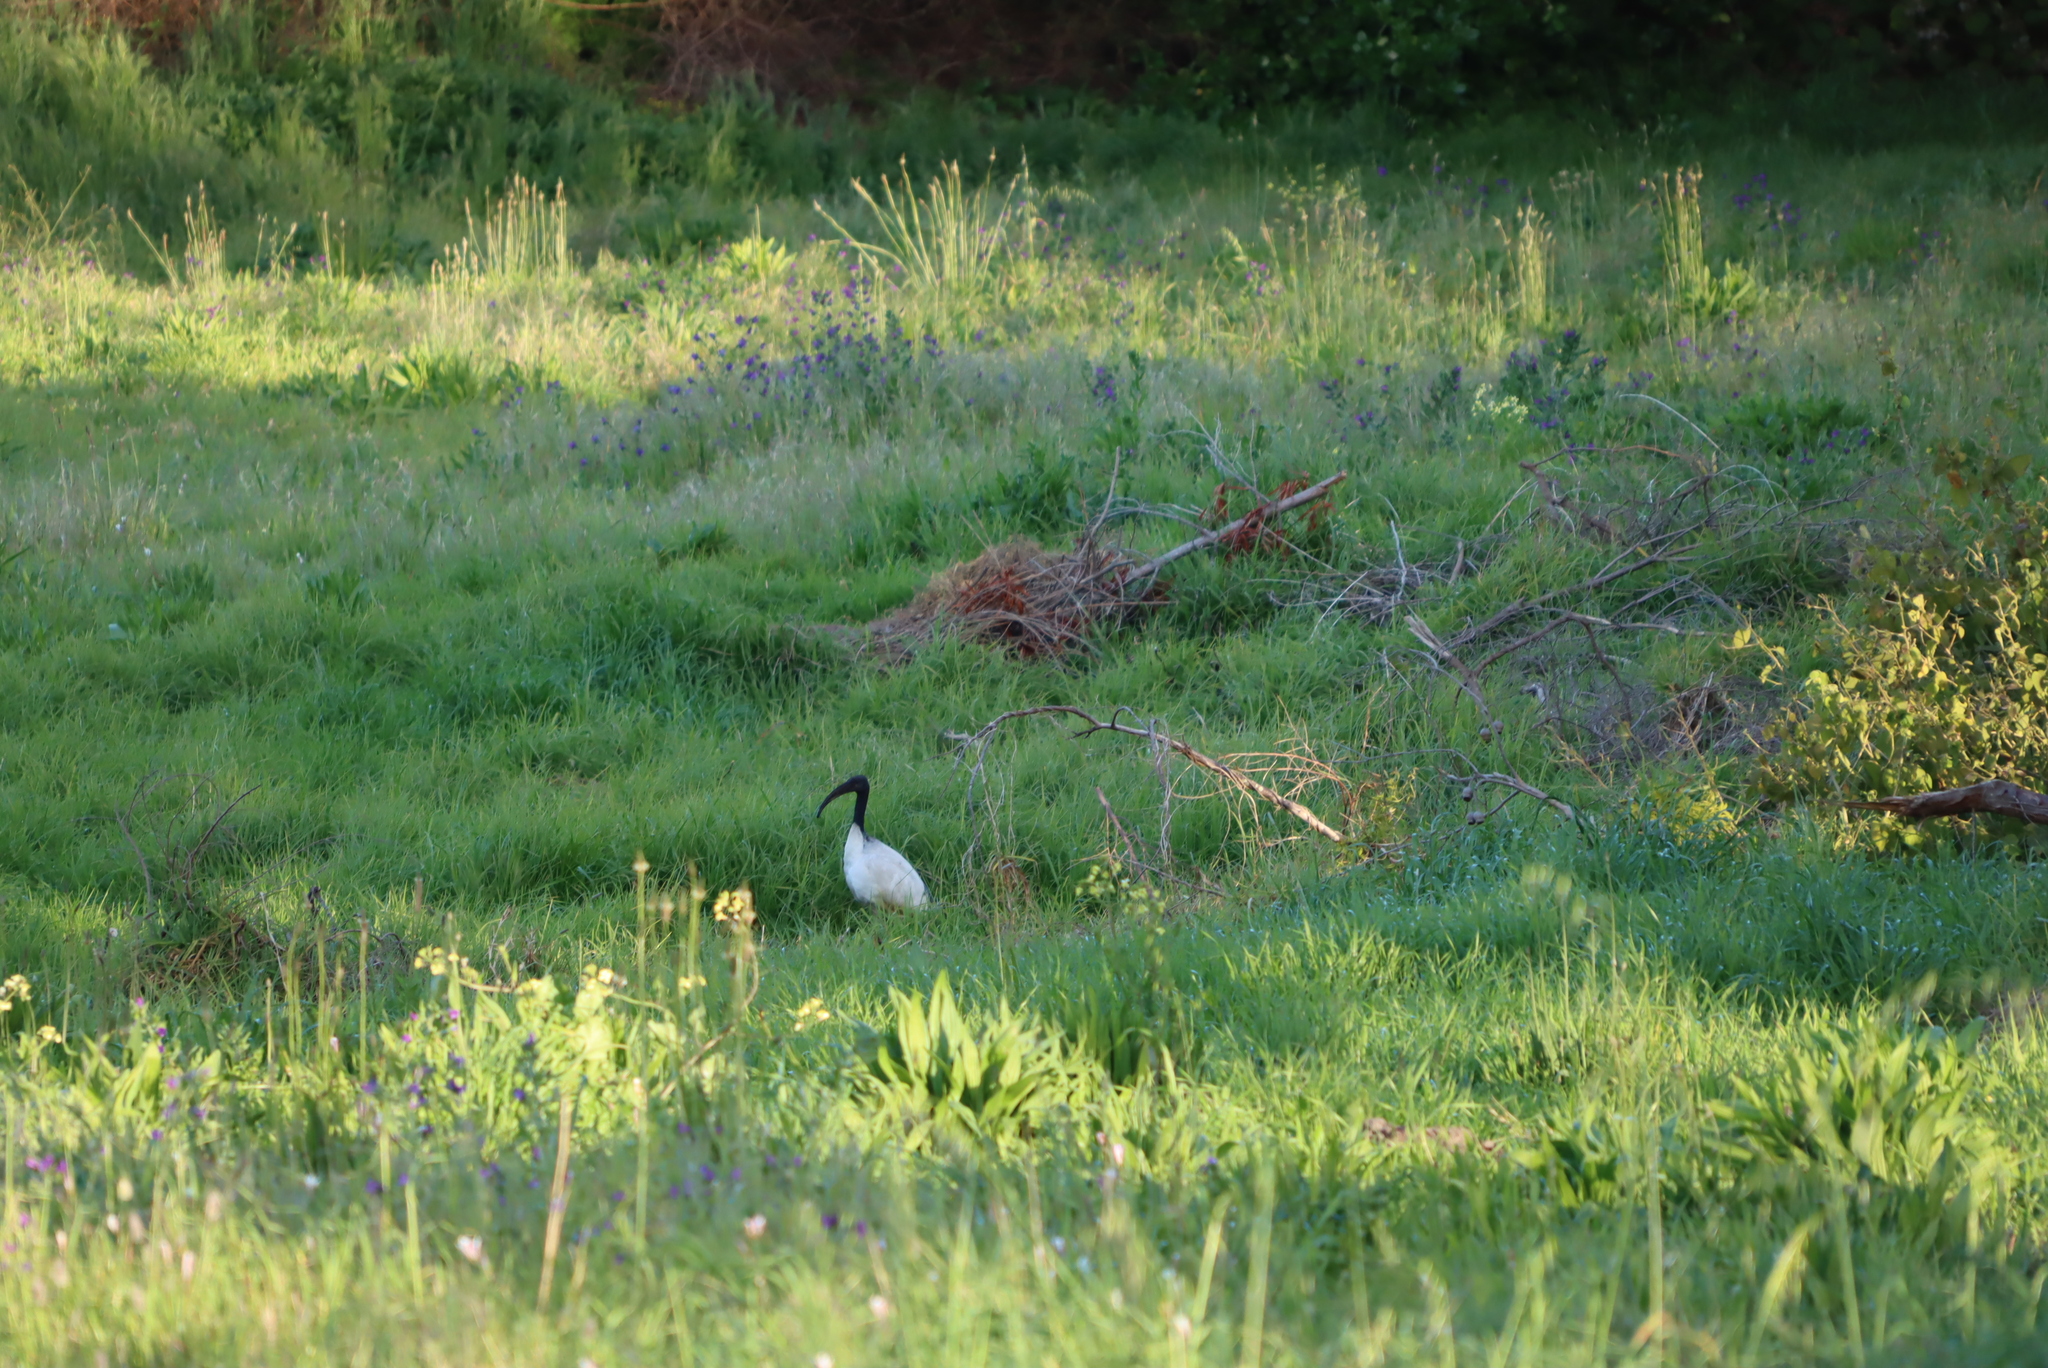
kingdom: Animalia
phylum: Chordata
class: Aves
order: Pelecaniformes
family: Threskiornithidae
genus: Threskiornis
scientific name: Threskiornis aethiopicus
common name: Sacred ibis
